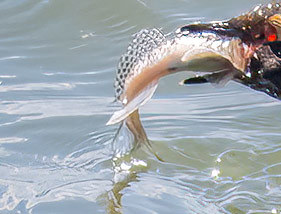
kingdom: Animalia
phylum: Chordata
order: Perciformes
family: Gobiidae
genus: Acanthogobius
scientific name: Acanthogobius flavimanus
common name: Yellowfin goby
